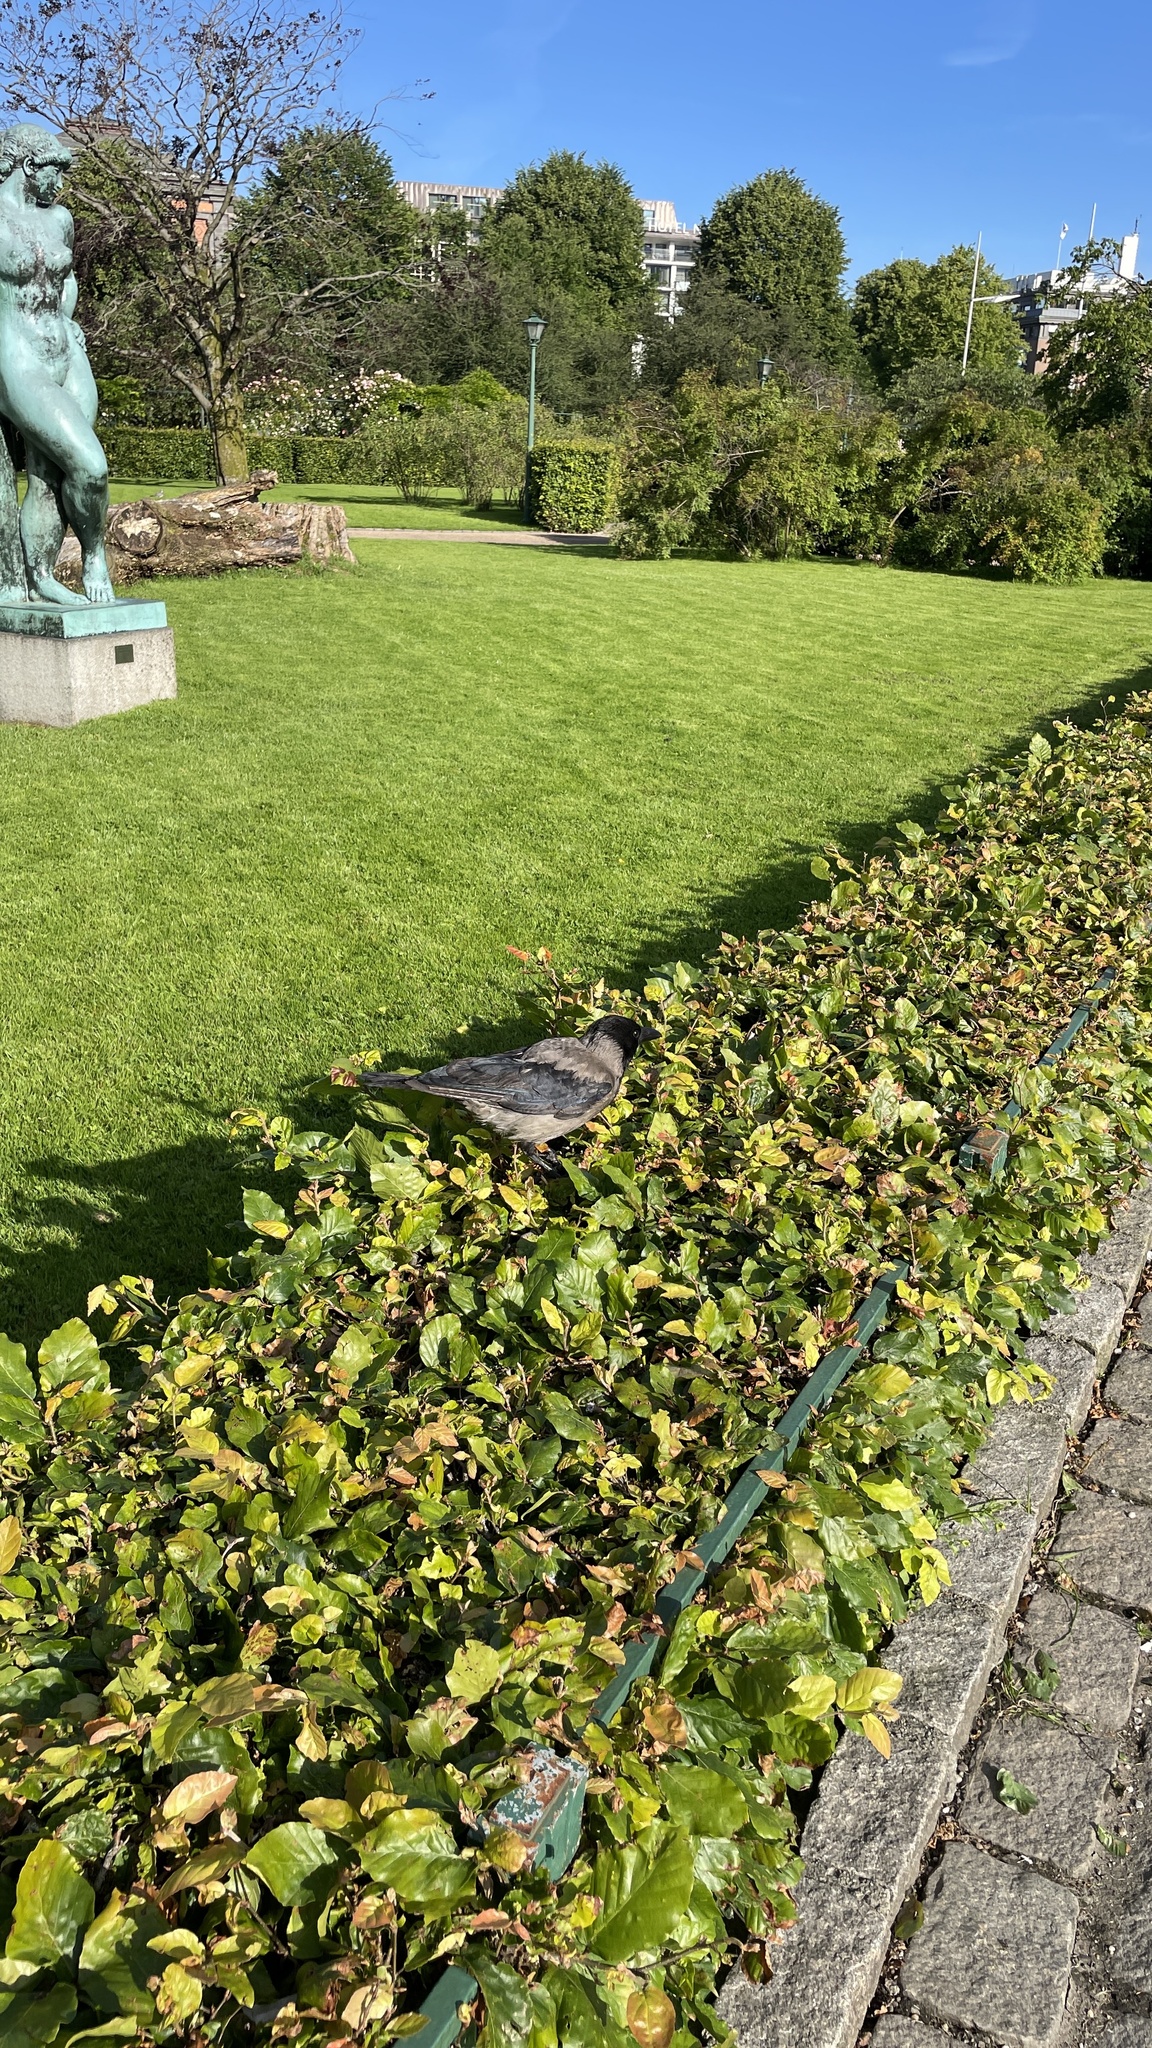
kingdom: Animalia
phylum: Chordata
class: Aves
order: Passeriformes
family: Corvidae
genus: Corvus
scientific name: Corvus cornix
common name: Hooded crow
